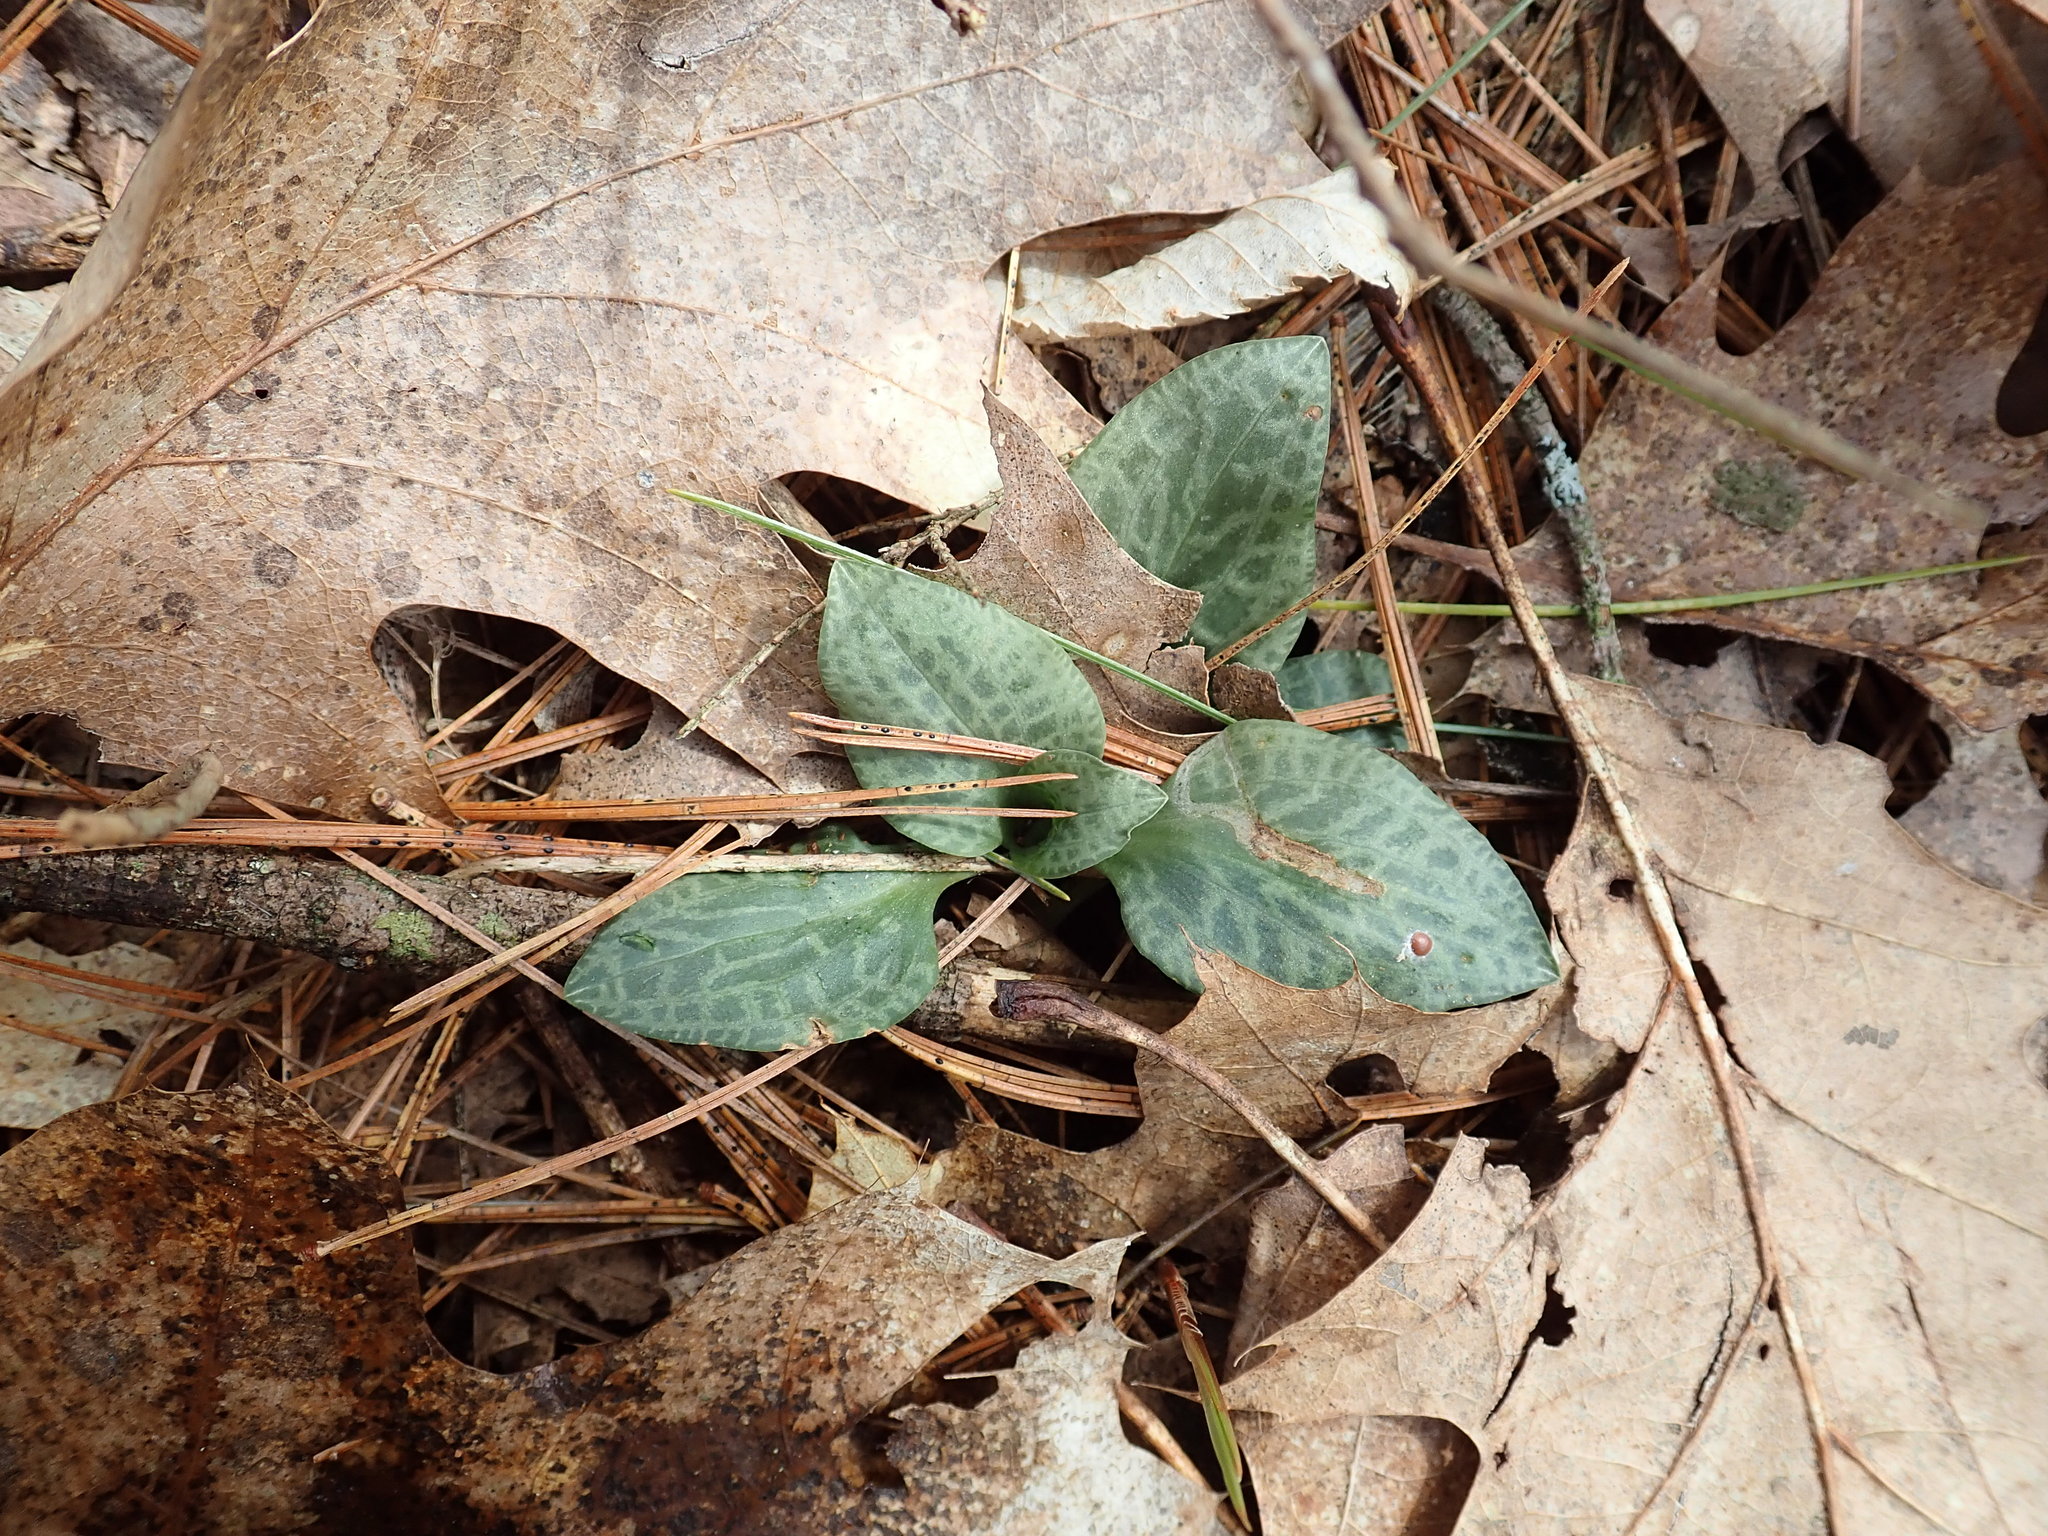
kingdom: Plantae
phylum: Tracheophyta
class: Liliopsida
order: Asparagales
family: Orchidaceae
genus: Goodyera
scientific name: Goodyera tesselata
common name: Checkered rattlesnake-plantain
